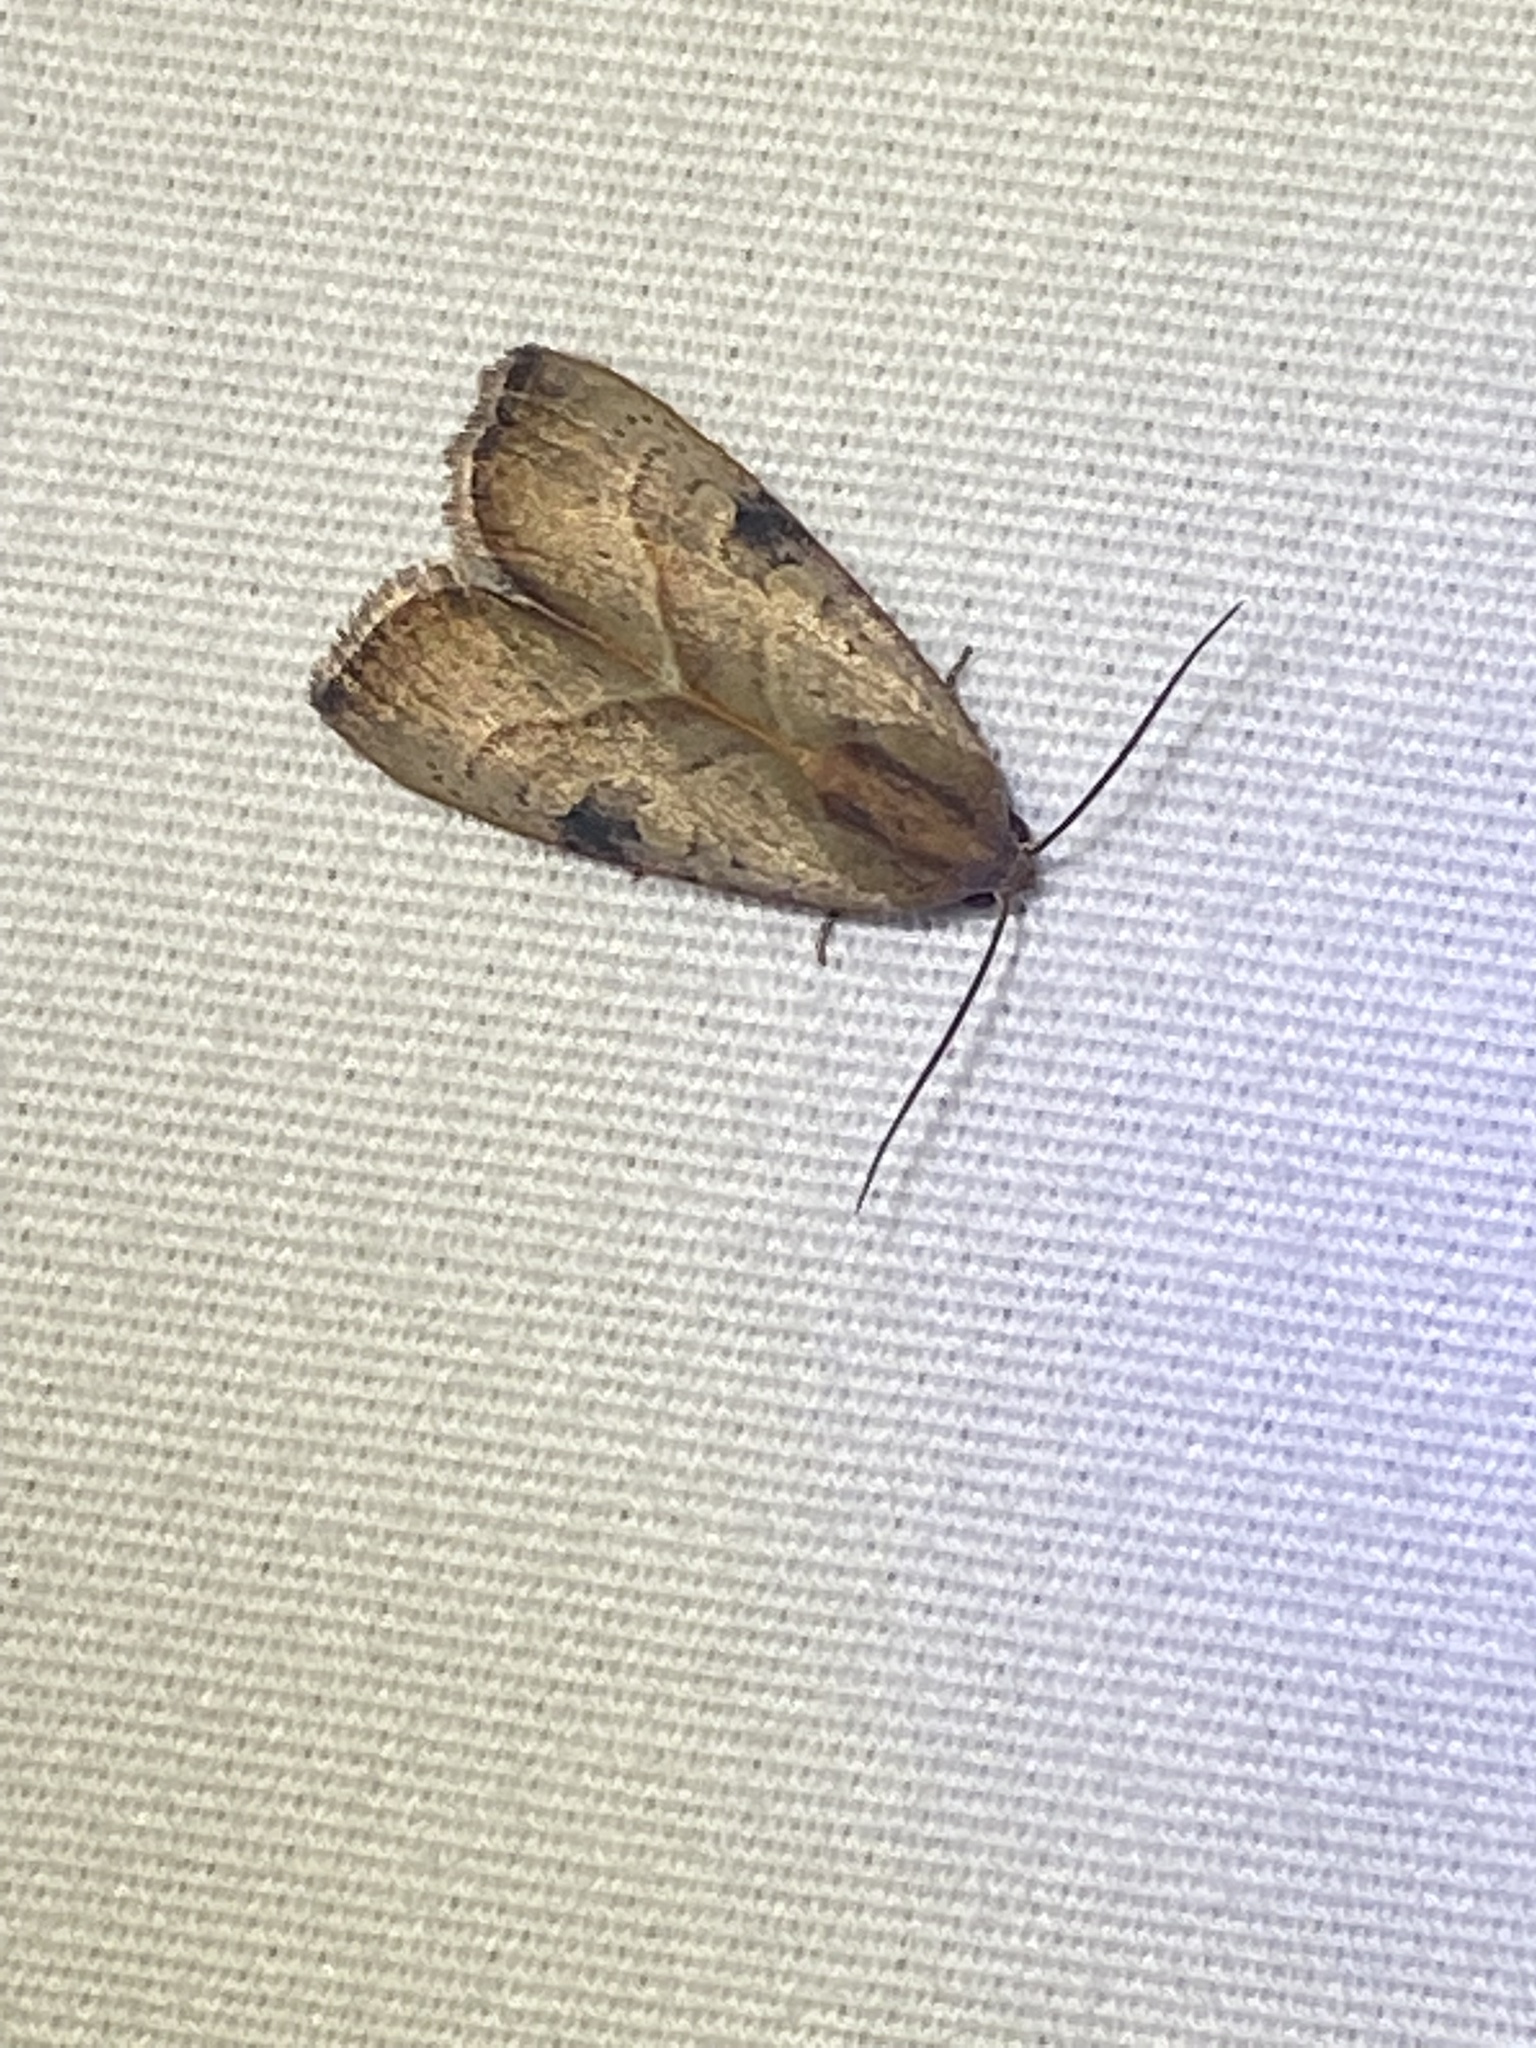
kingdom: Animalia
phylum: Arthropoda
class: Insecta
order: Lepidoptera
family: Noctuidae
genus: Galgula
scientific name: Galgula partita
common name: Wedgeling
